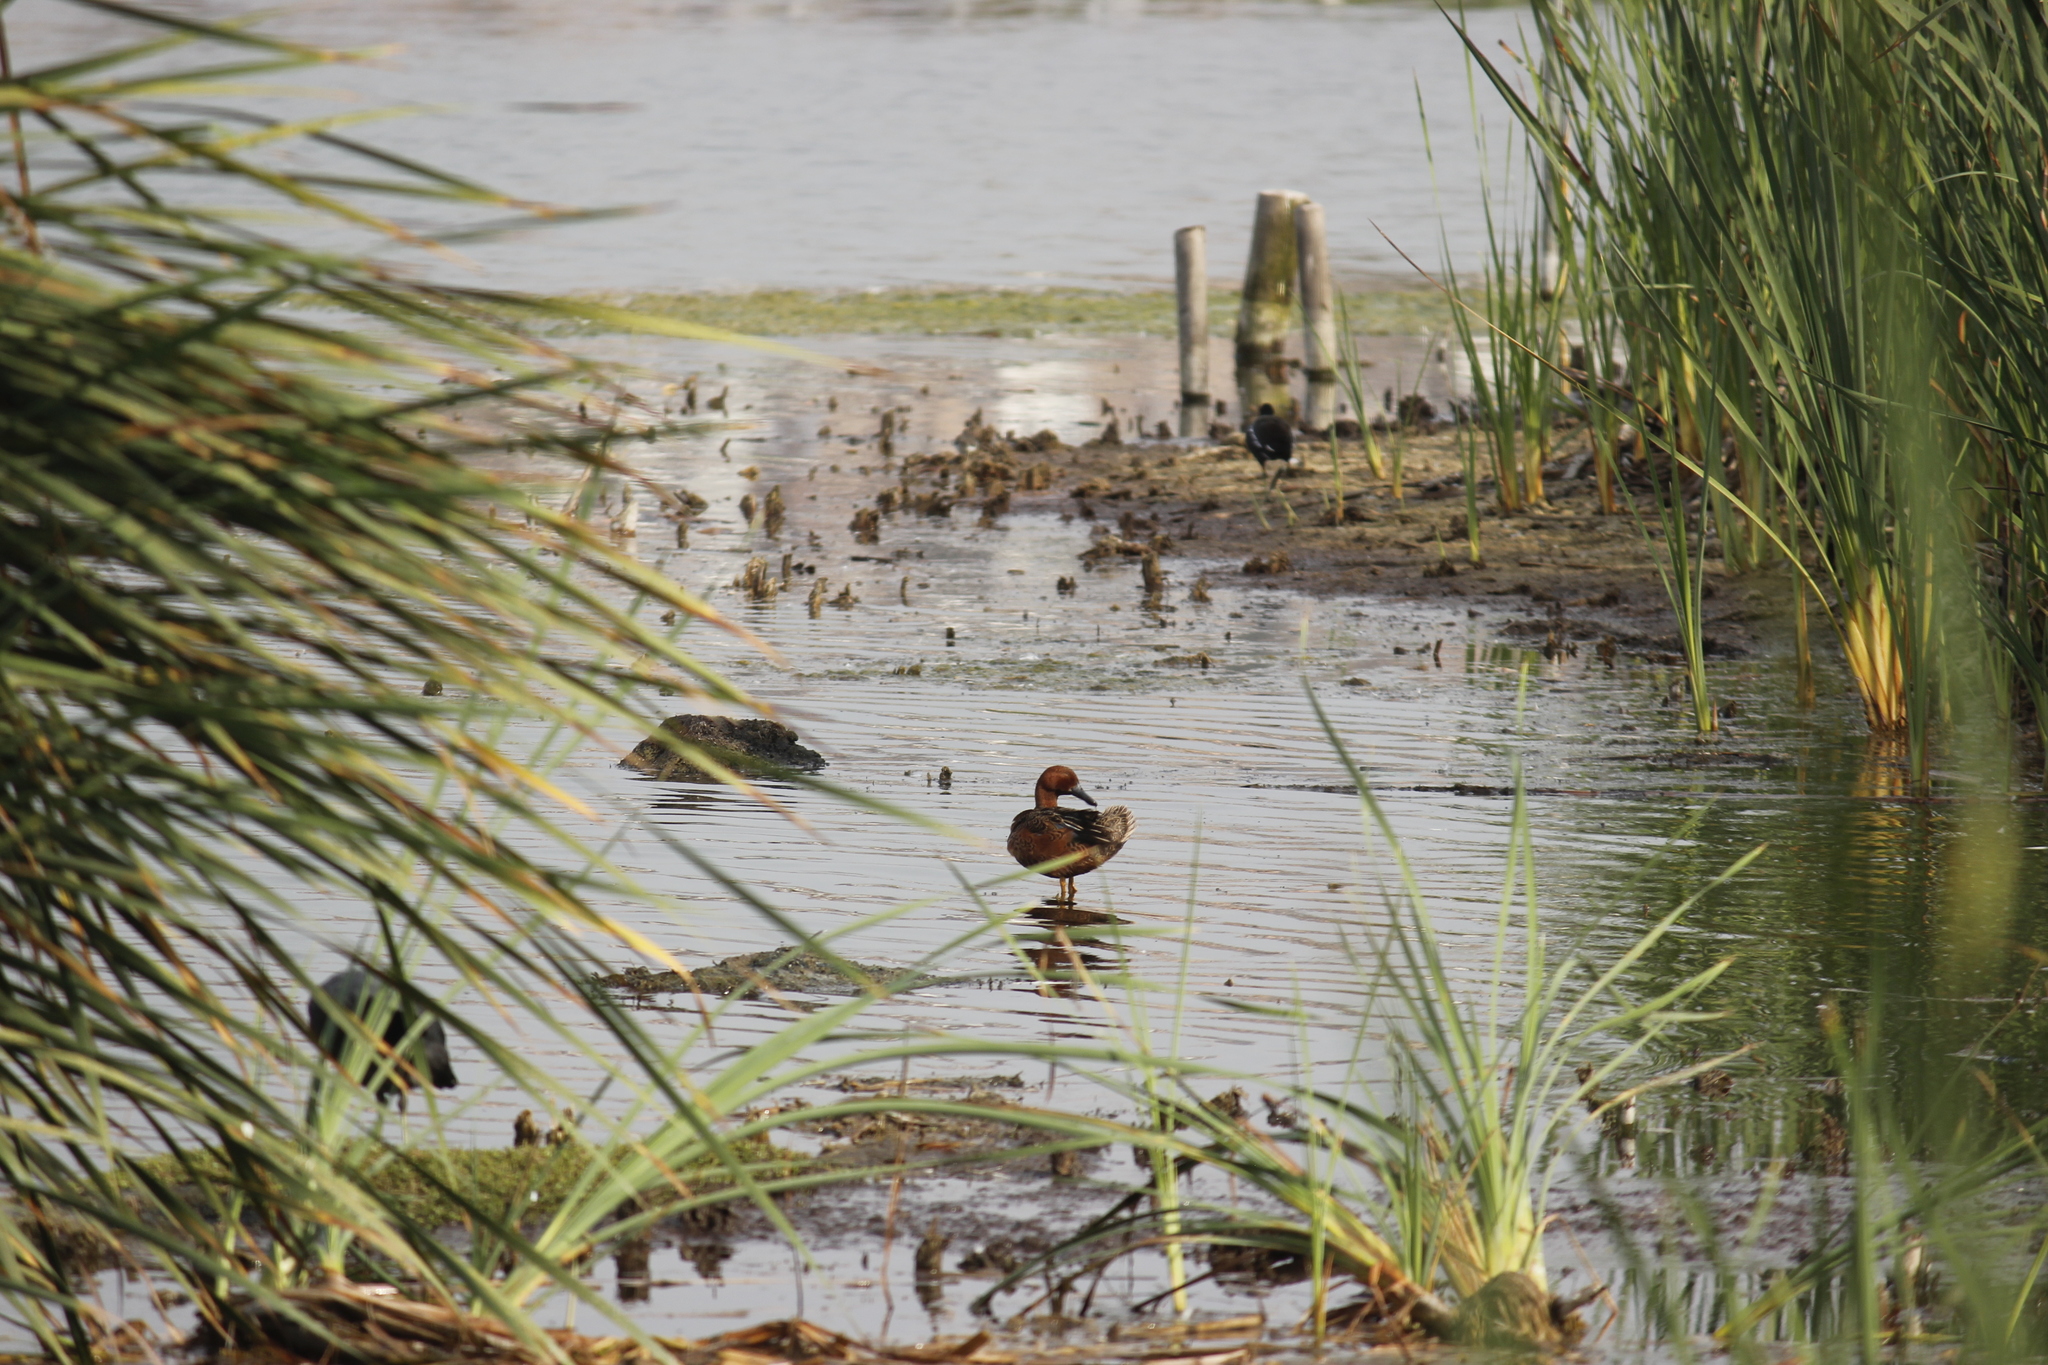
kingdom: Animalia
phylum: Chordata
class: Aves
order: Anseriformes
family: Anatidae
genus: Spatula
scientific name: Spatula cyanoptera
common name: Cinnamon teal
